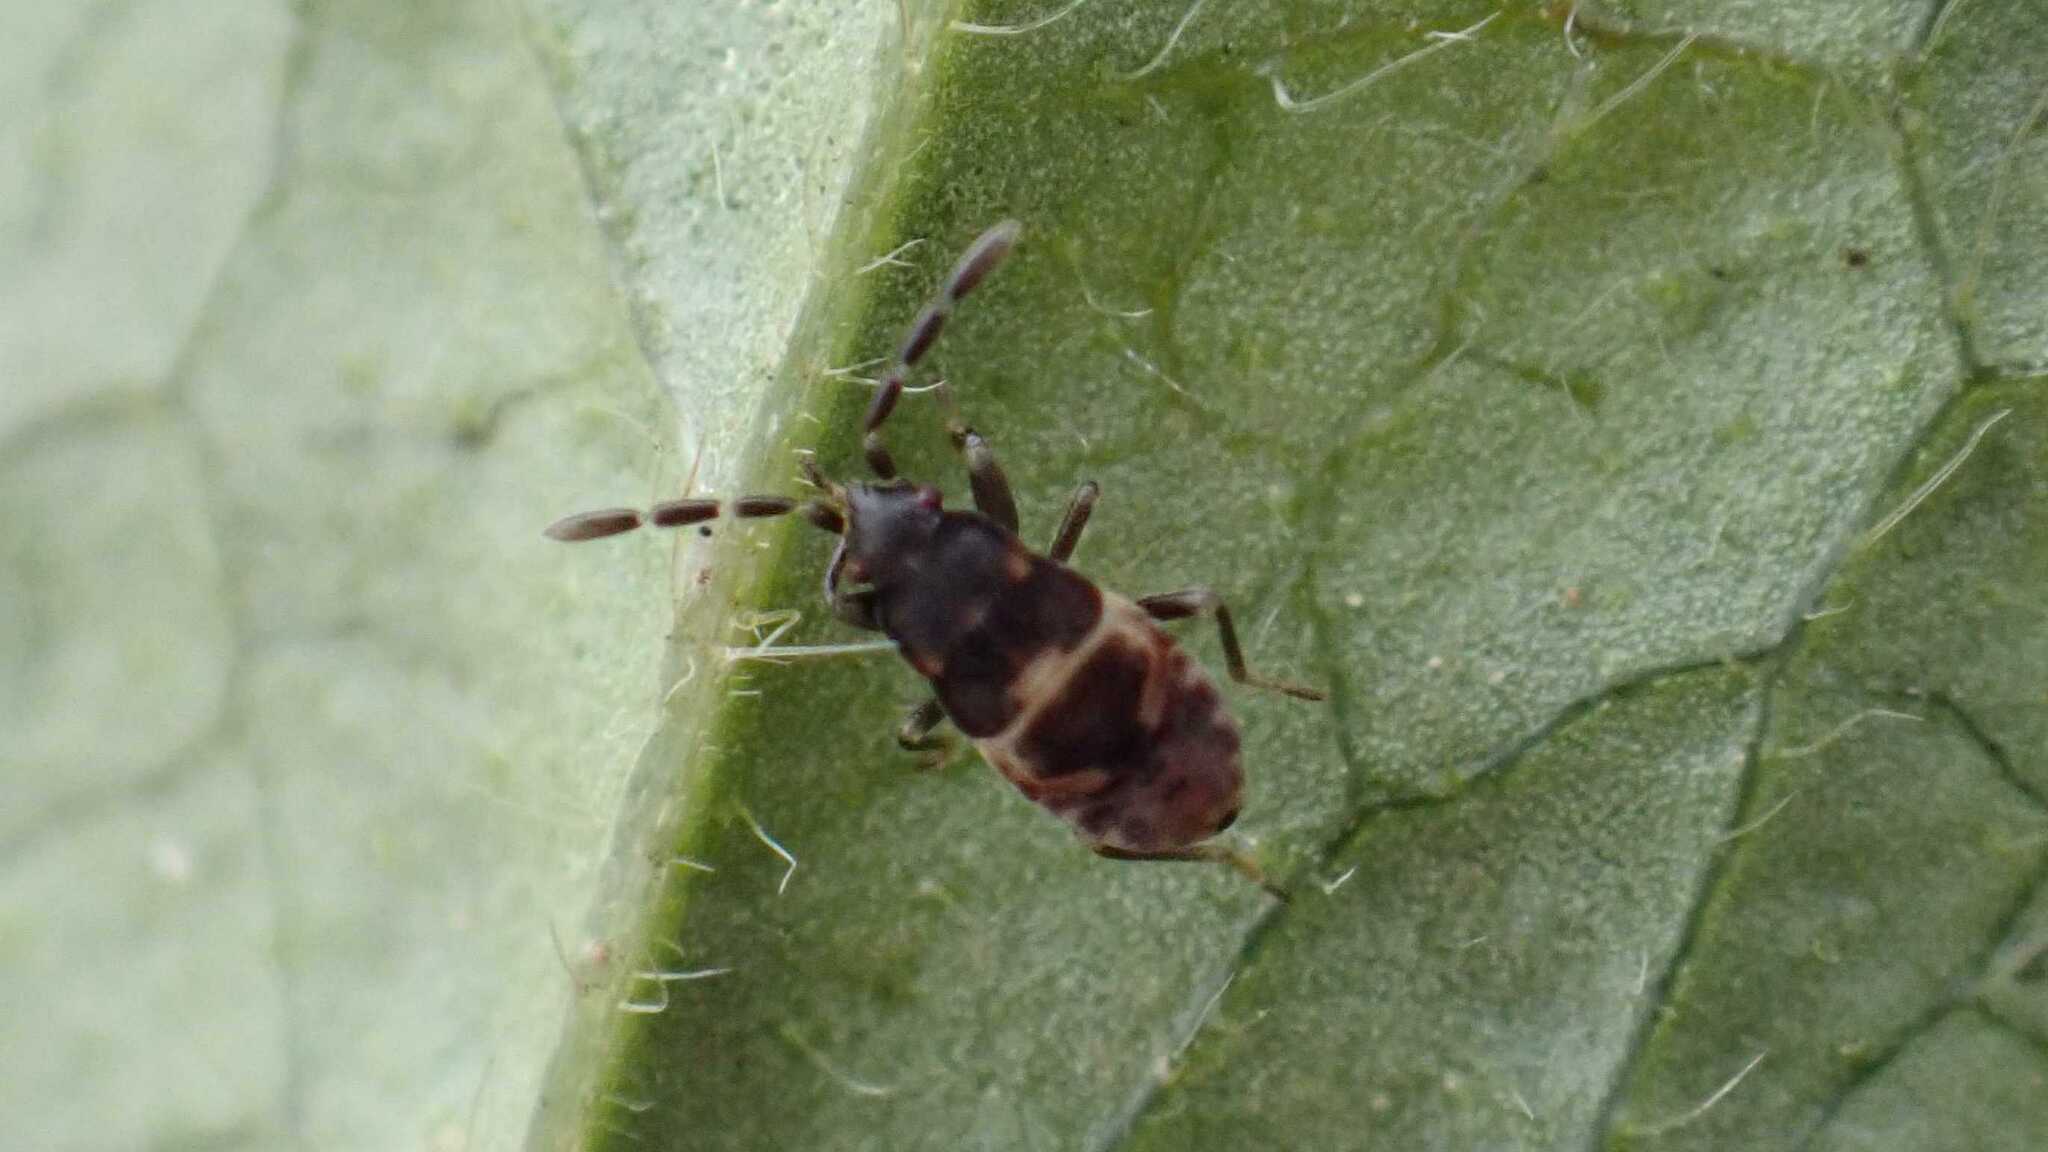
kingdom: Animalia
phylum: Arthropoda
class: Insecta
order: Hemiptera
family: Rhyparochromidae
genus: Scolopostethus
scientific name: Scolopostethus affinis
